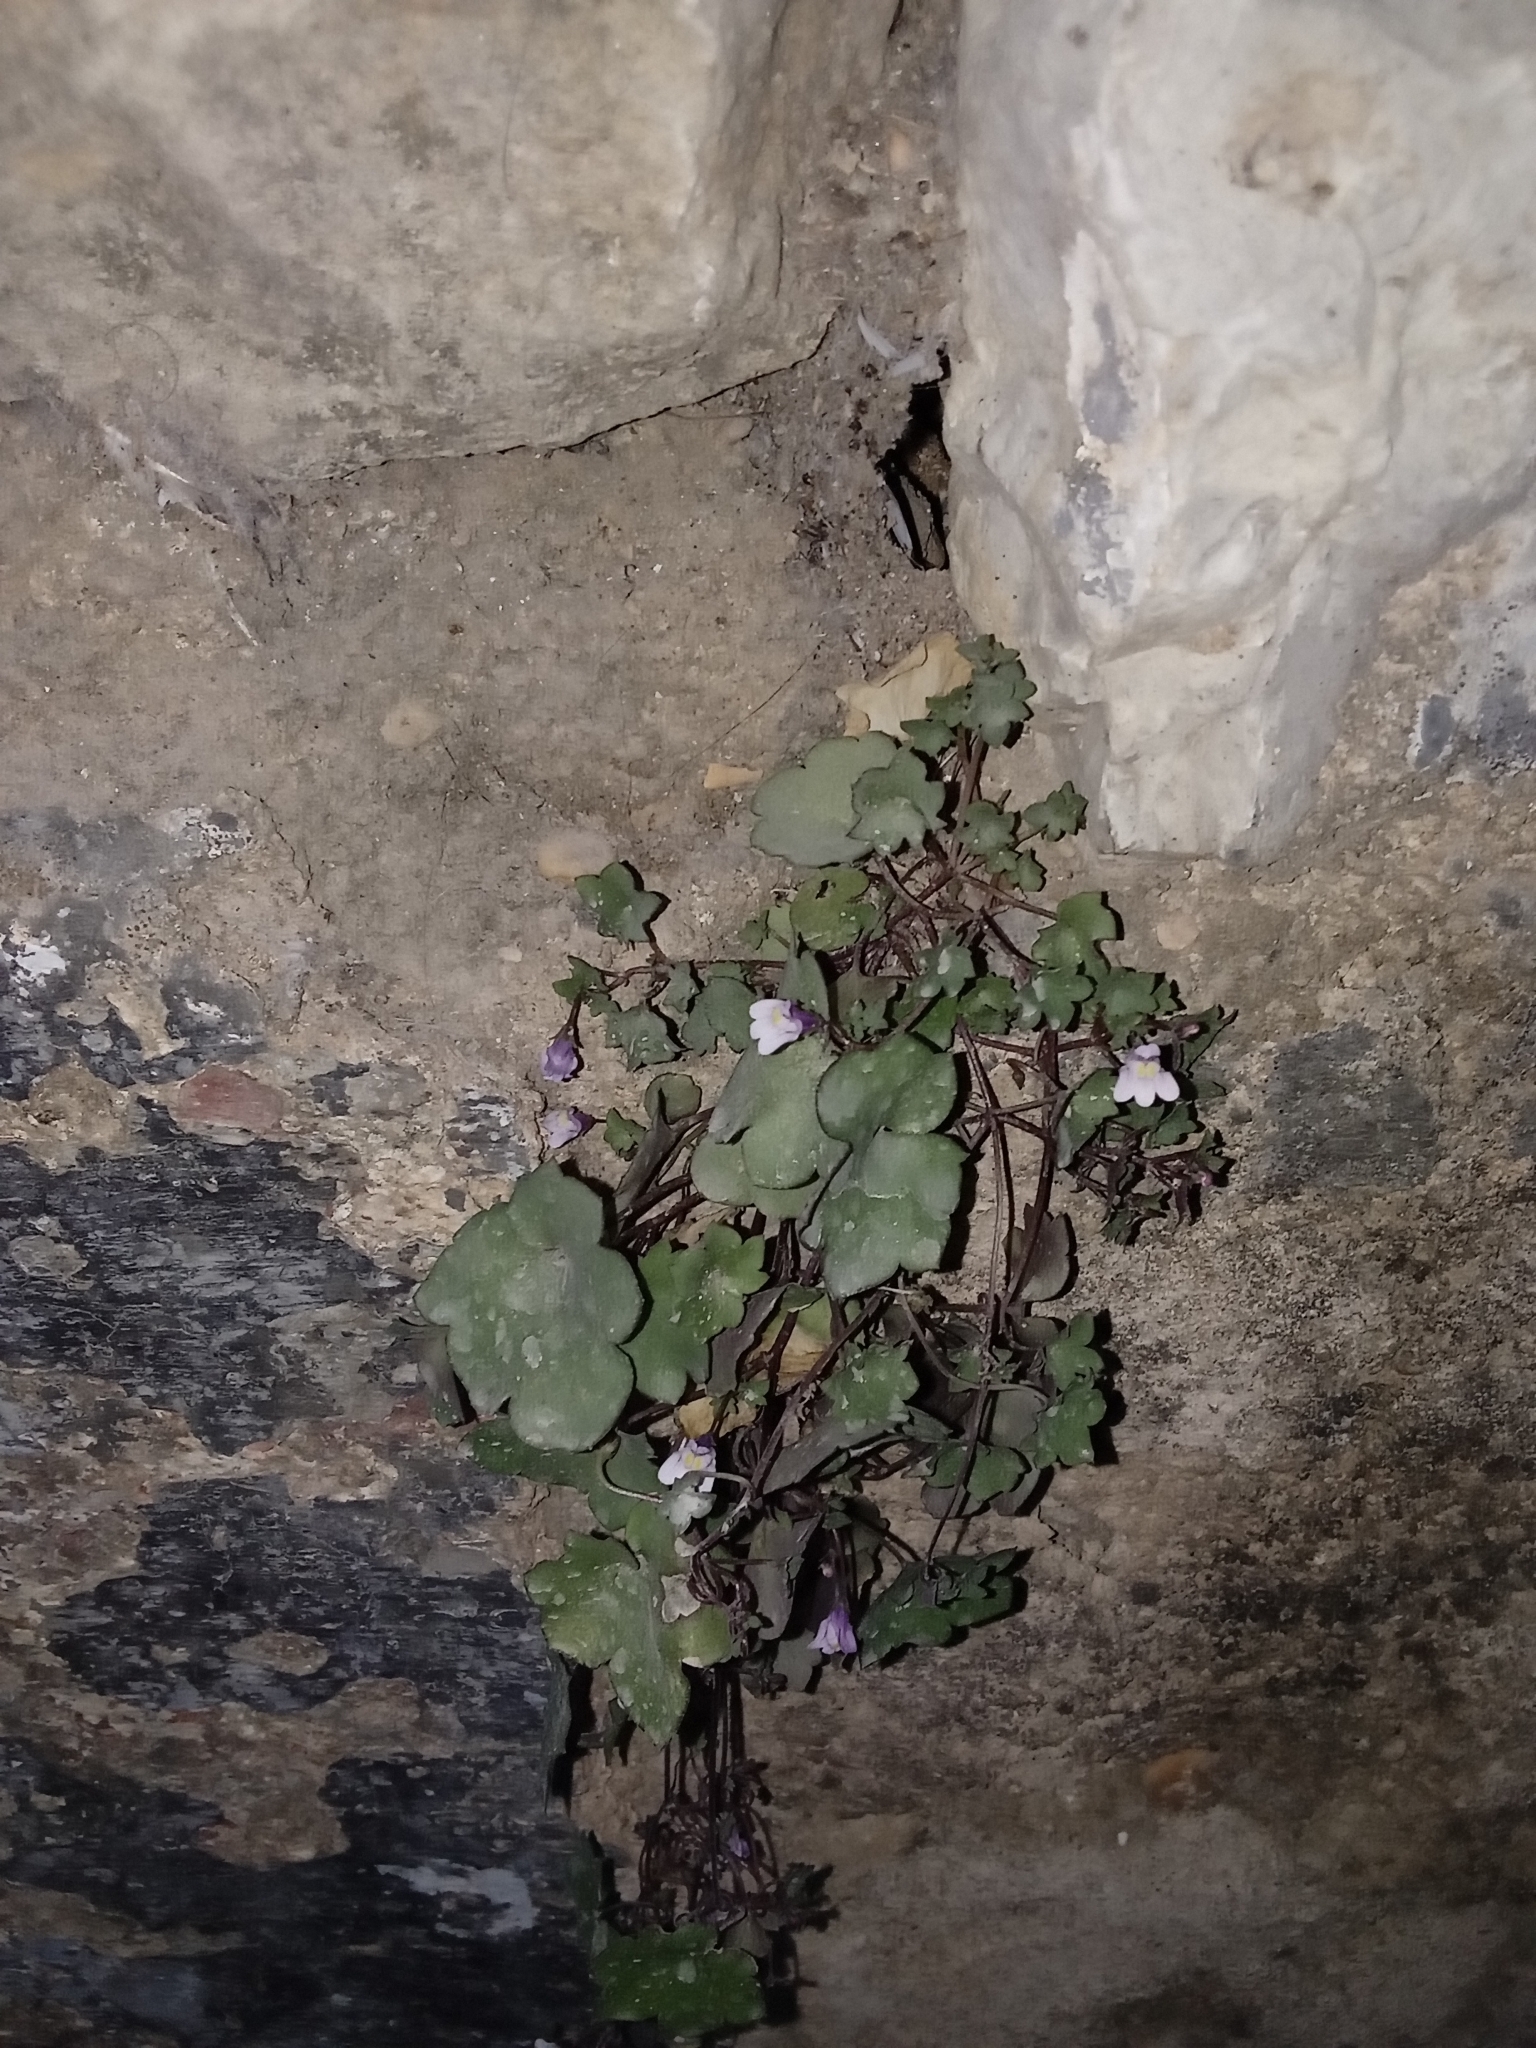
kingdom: Plantae
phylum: Tracheophyta
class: Magnoliopsida
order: Lamiales
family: Plantaginaceae
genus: Cymbalaria
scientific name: Cymbalaria muralis
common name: Ivy-leaved toadflax
